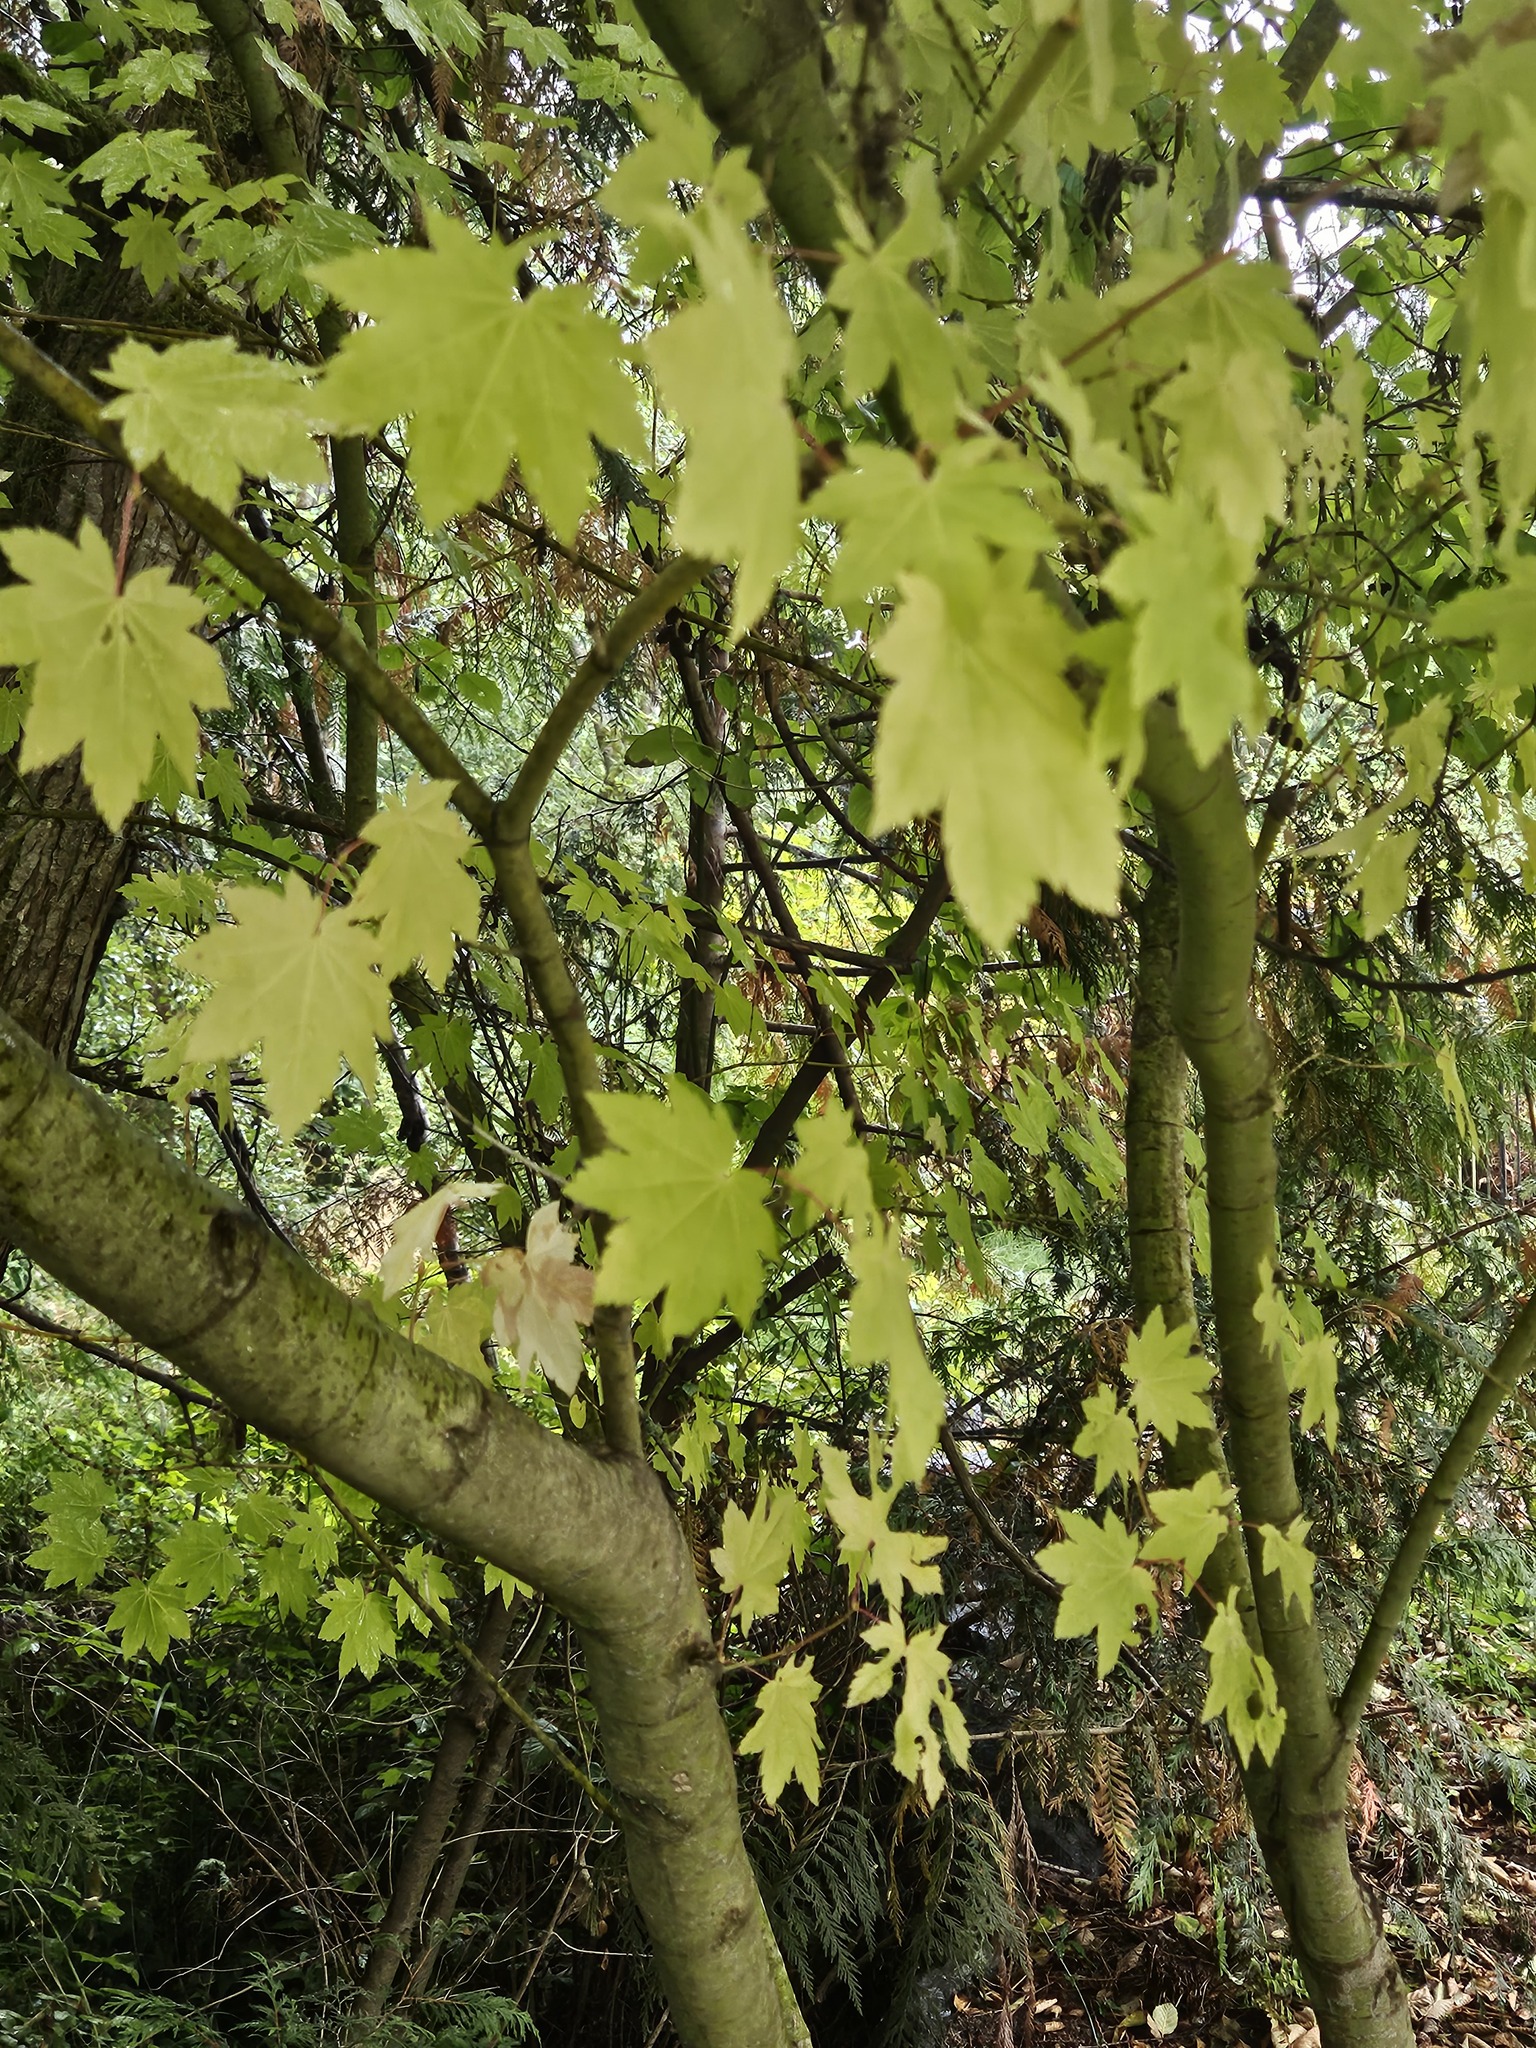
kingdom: Plantae
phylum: Tracheophyta
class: Magnoliopsida
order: Sapindales
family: Sapindaceae
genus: Acer
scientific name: Acer circinatum
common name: Vine maple
